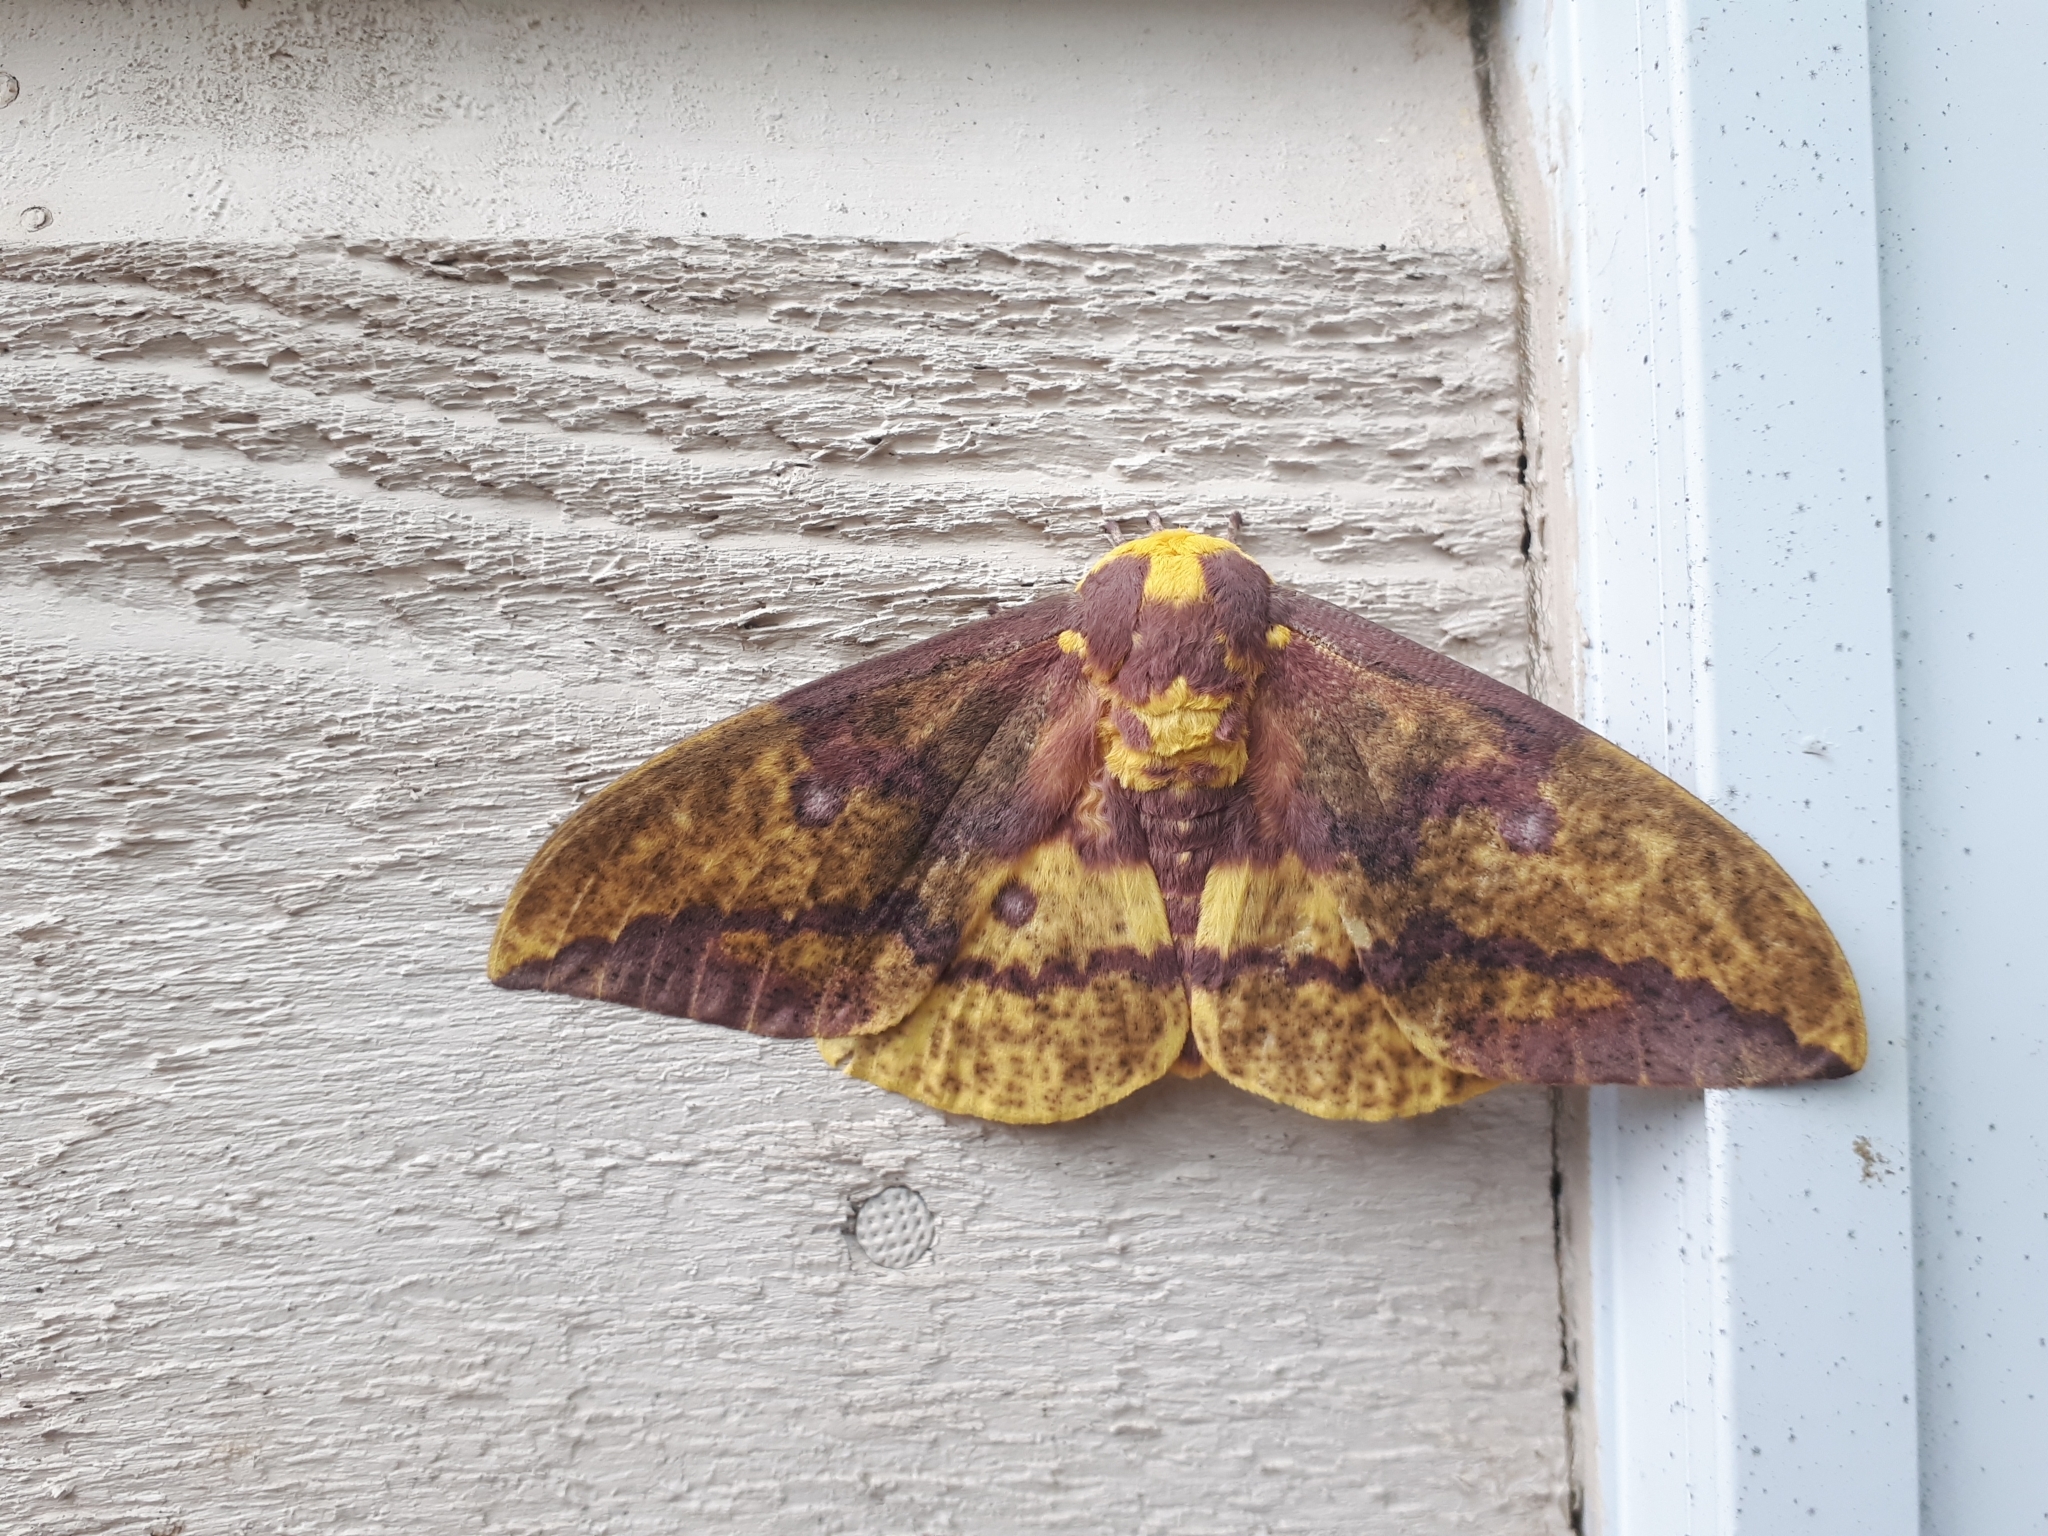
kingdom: Animalia
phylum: Arthropoda
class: Insecta
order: Lepidoptera
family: Saturniidae
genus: Eacles
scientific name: Eacles
